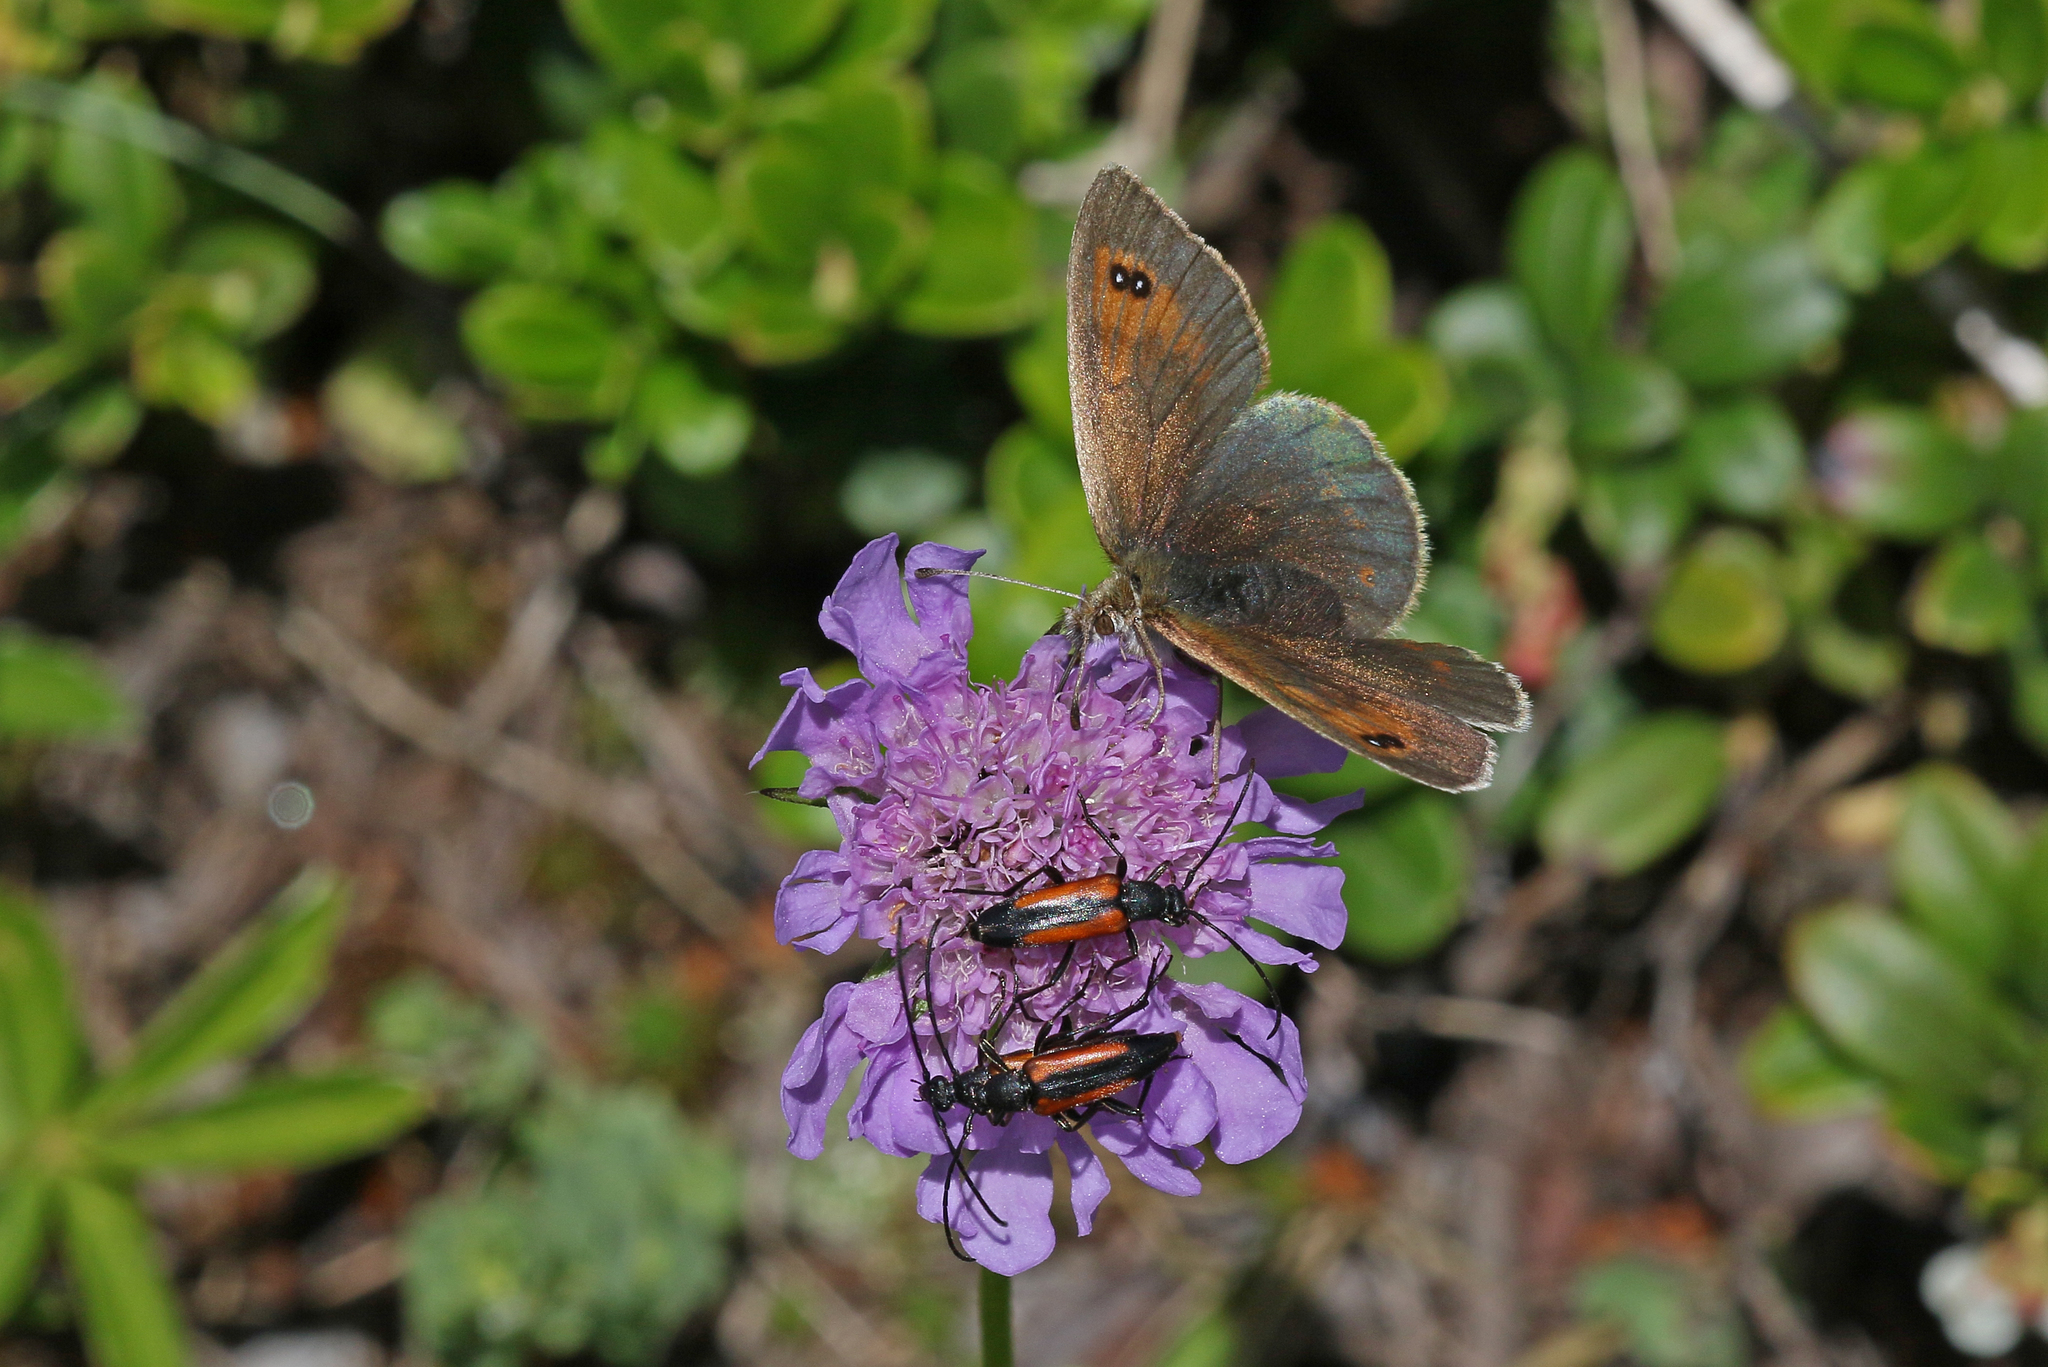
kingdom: Animalia
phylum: Arthropoda
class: Insecta
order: Lepidoptera
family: Nymphalidae
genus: Erebia
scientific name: Erebia cassioides
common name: Common brassy ringlet
